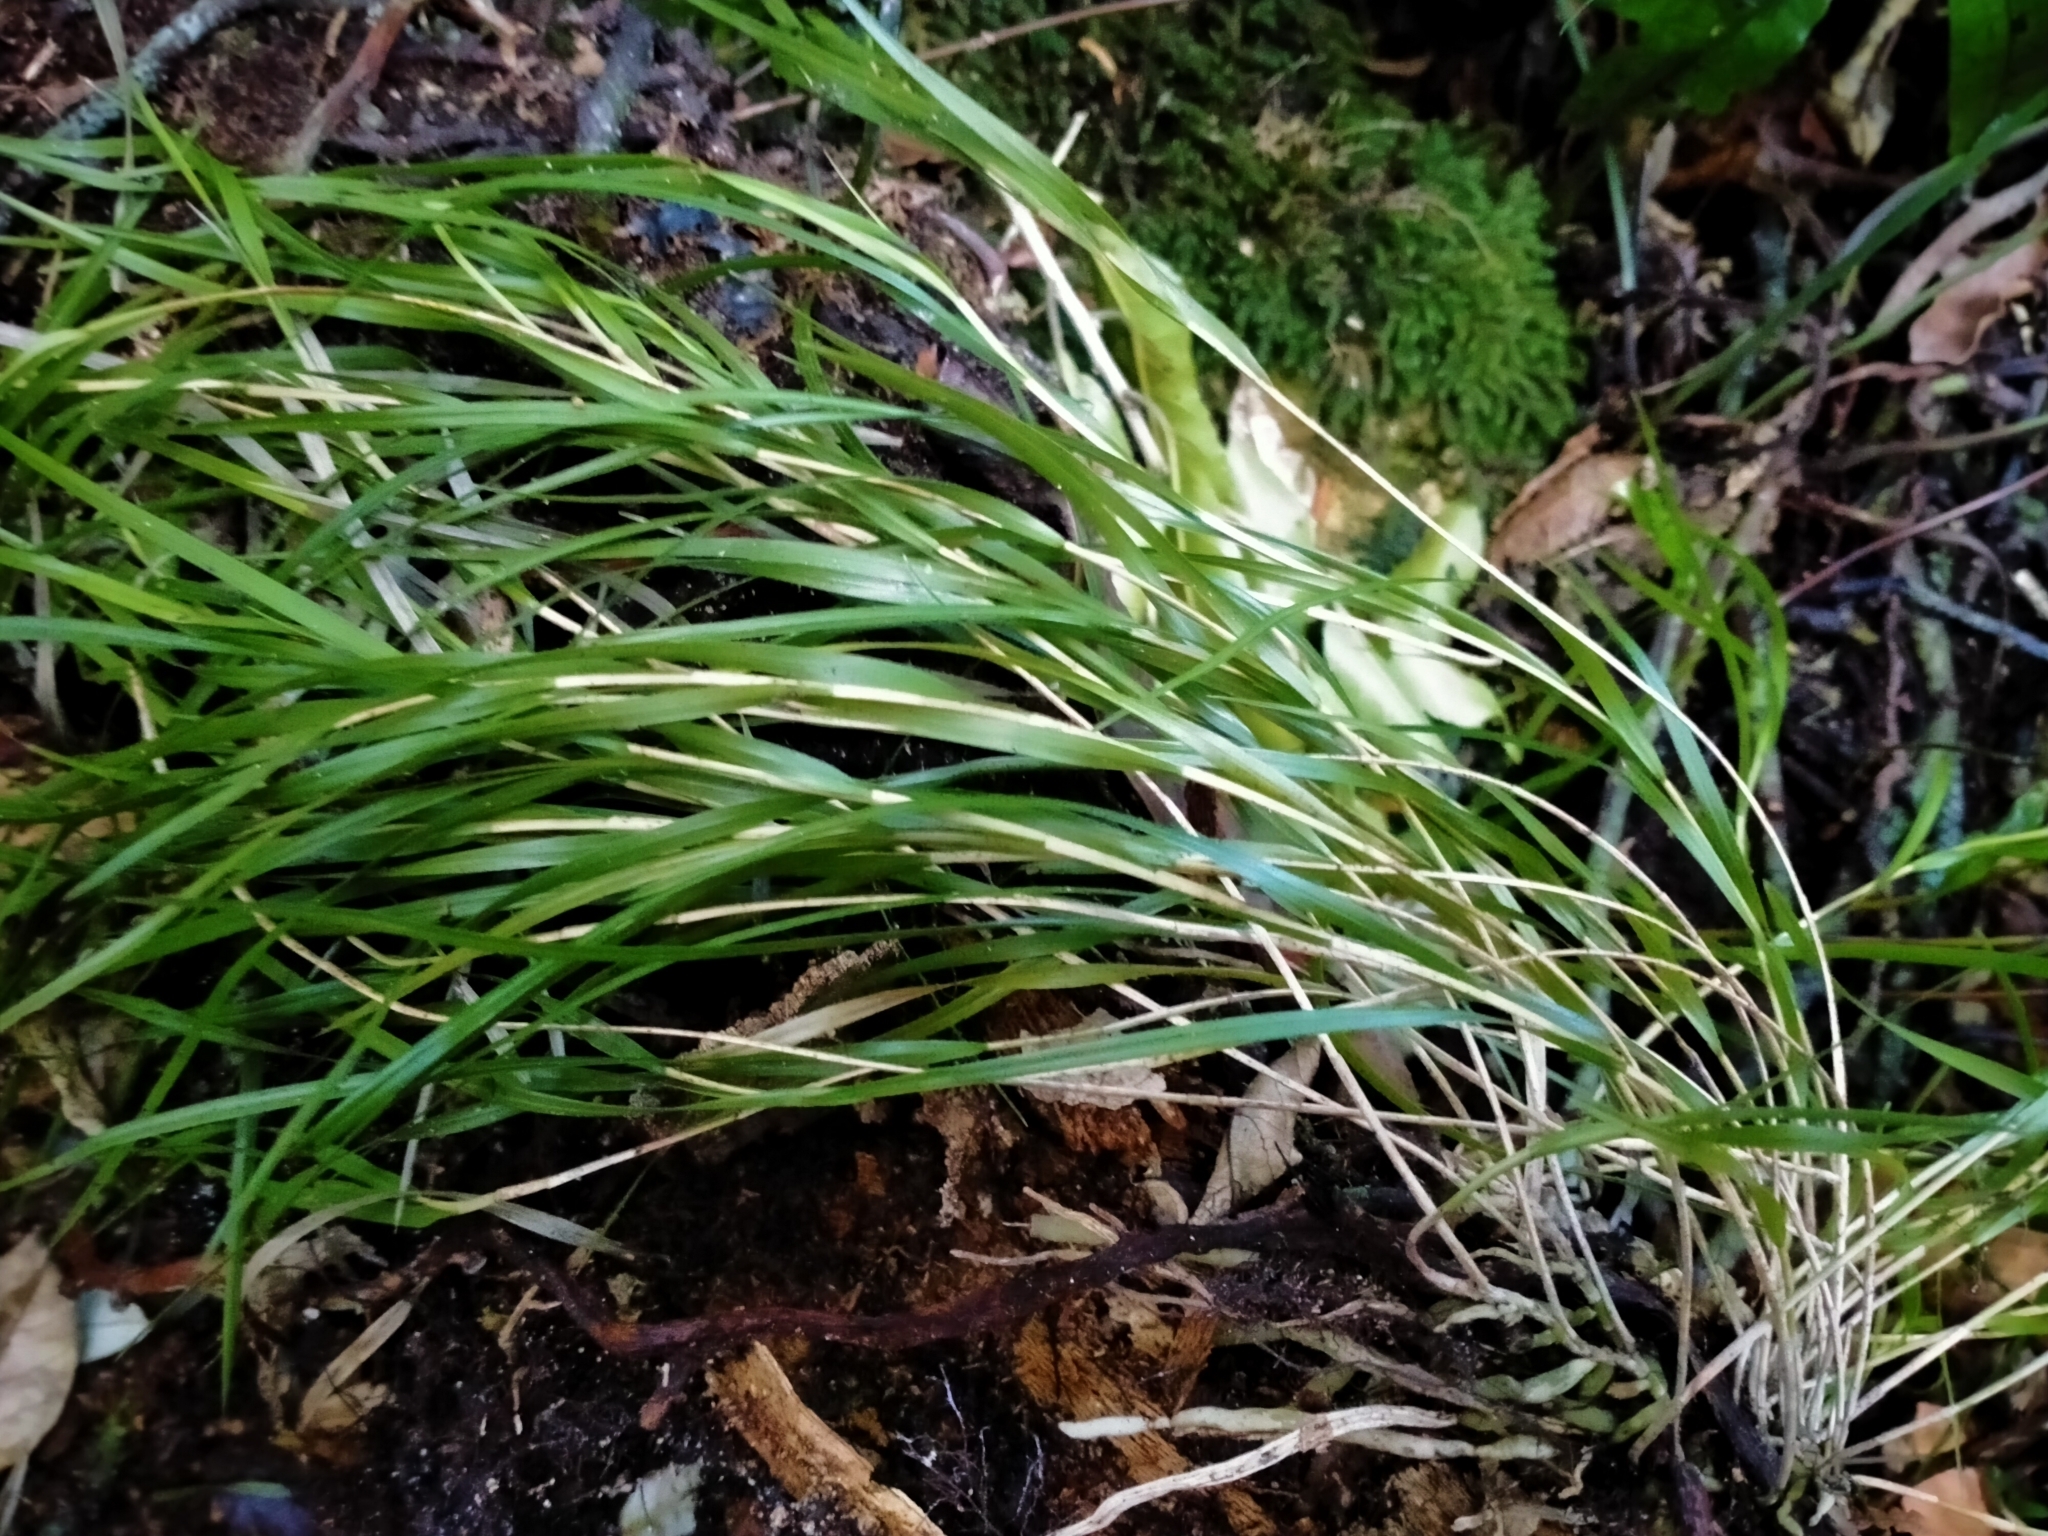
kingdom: Plantae
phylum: Tracheophyta
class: Liliopsida
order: Asparagales
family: Orchidaceae
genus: Earina
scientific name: Earina mucronata
